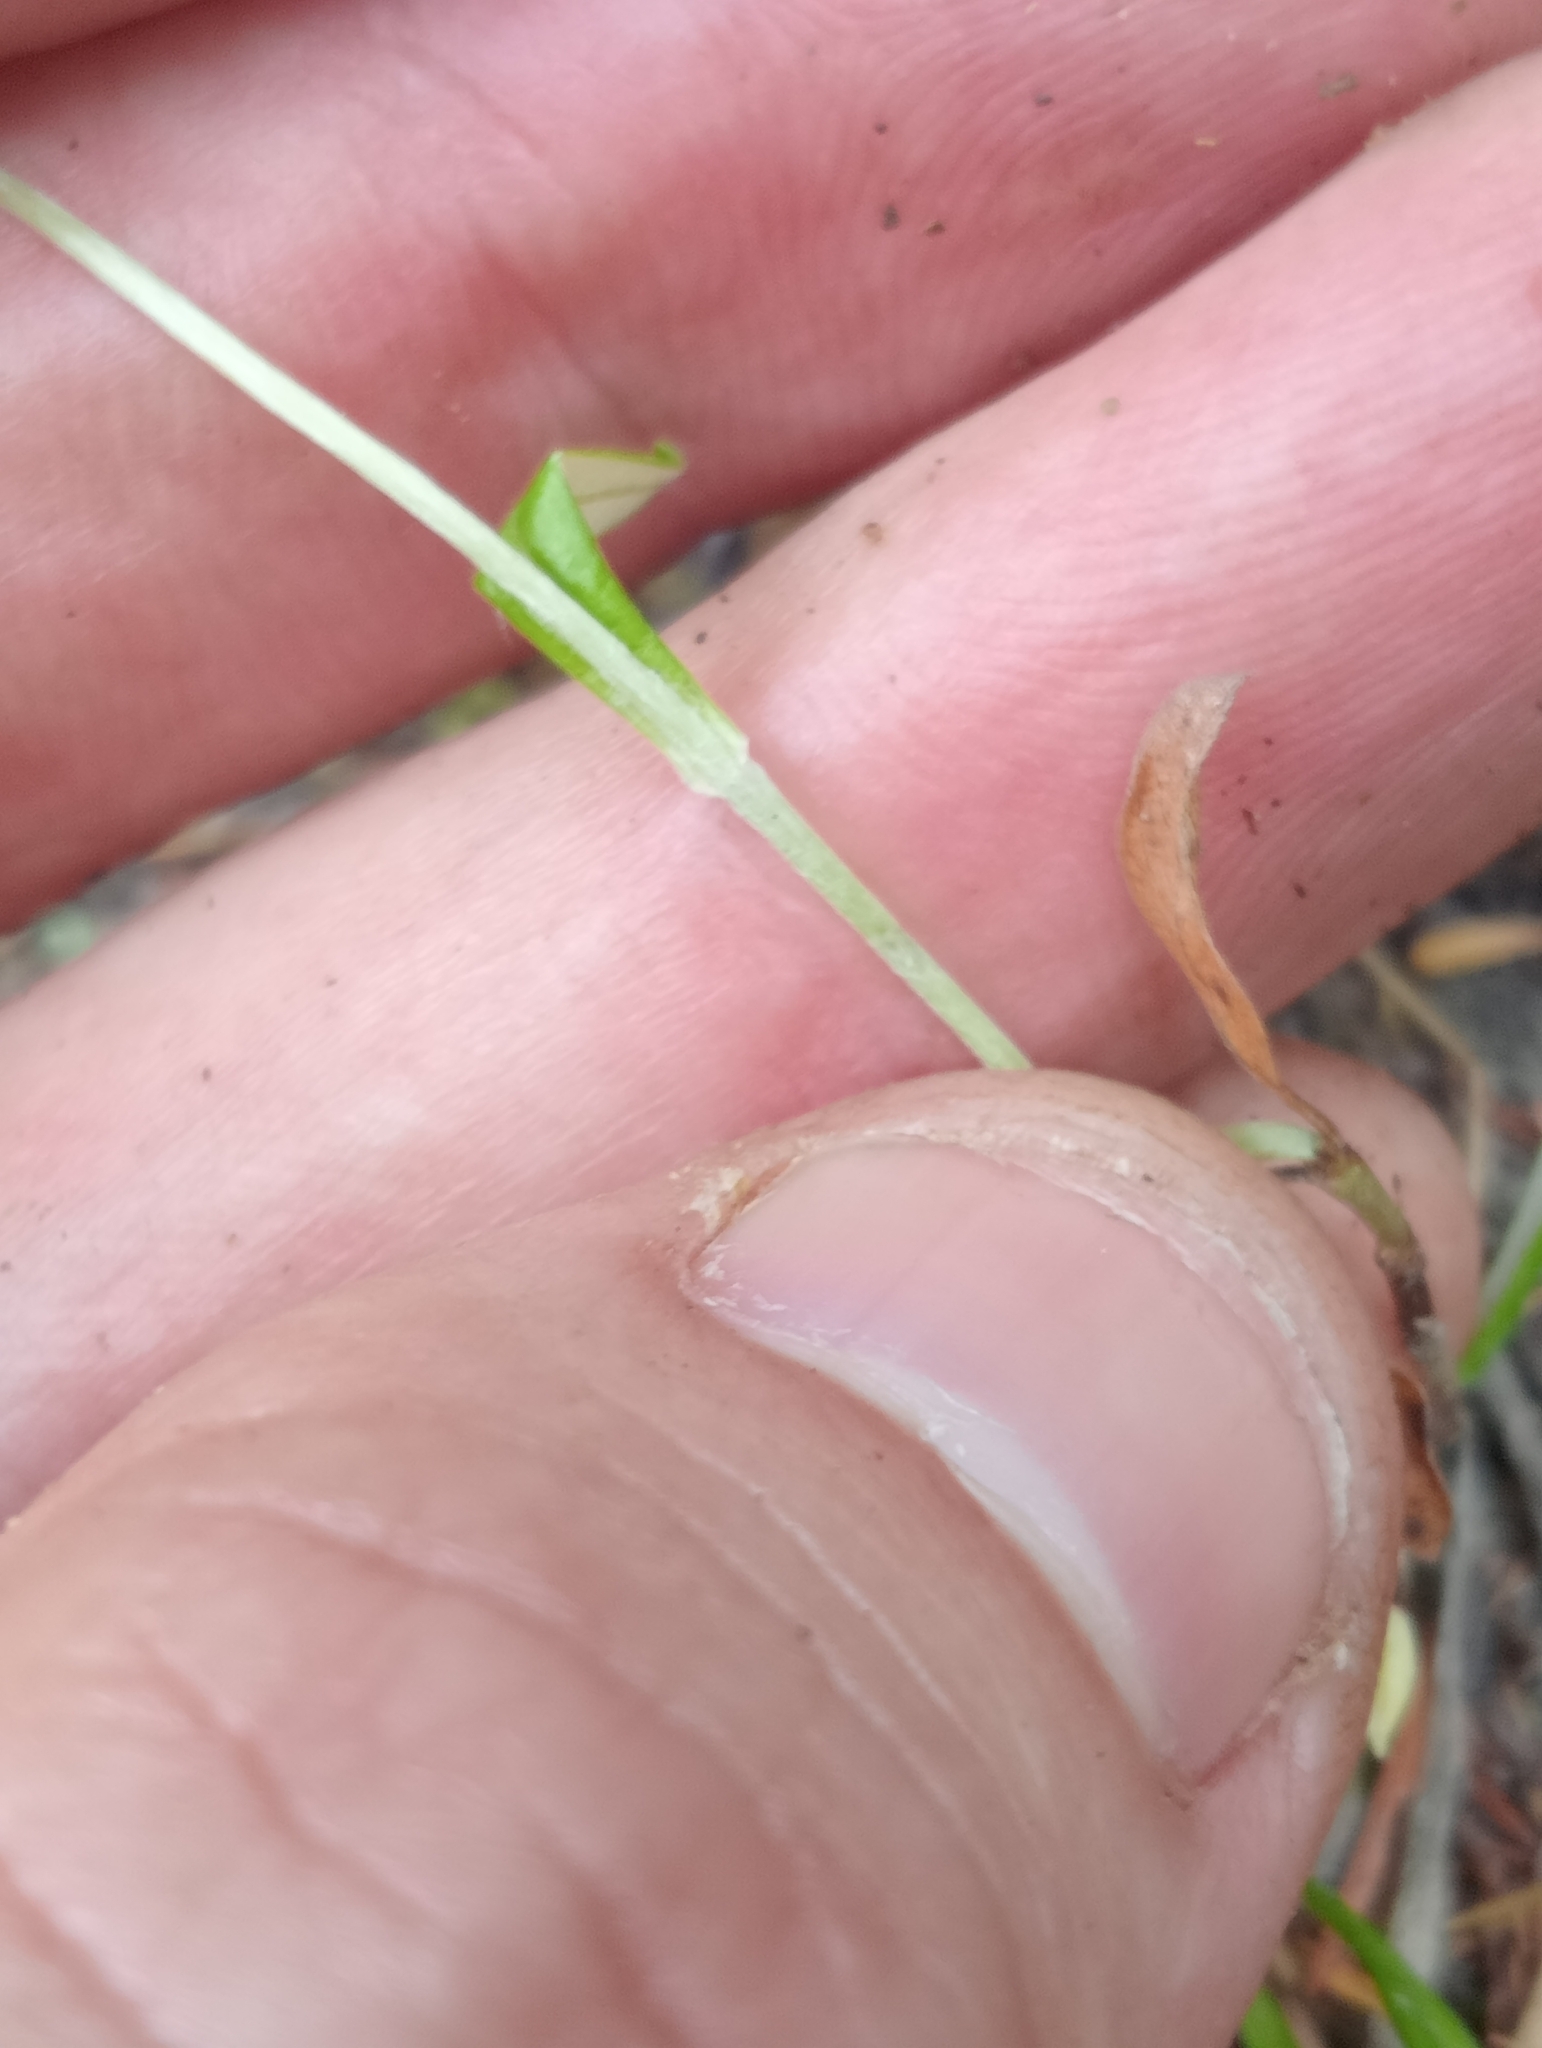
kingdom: Plantae
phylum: Tracheophyta
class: Magnoliopsida
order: Asterales
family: Asteraceae
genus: Euchiton
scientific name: Euchiton japonicus
